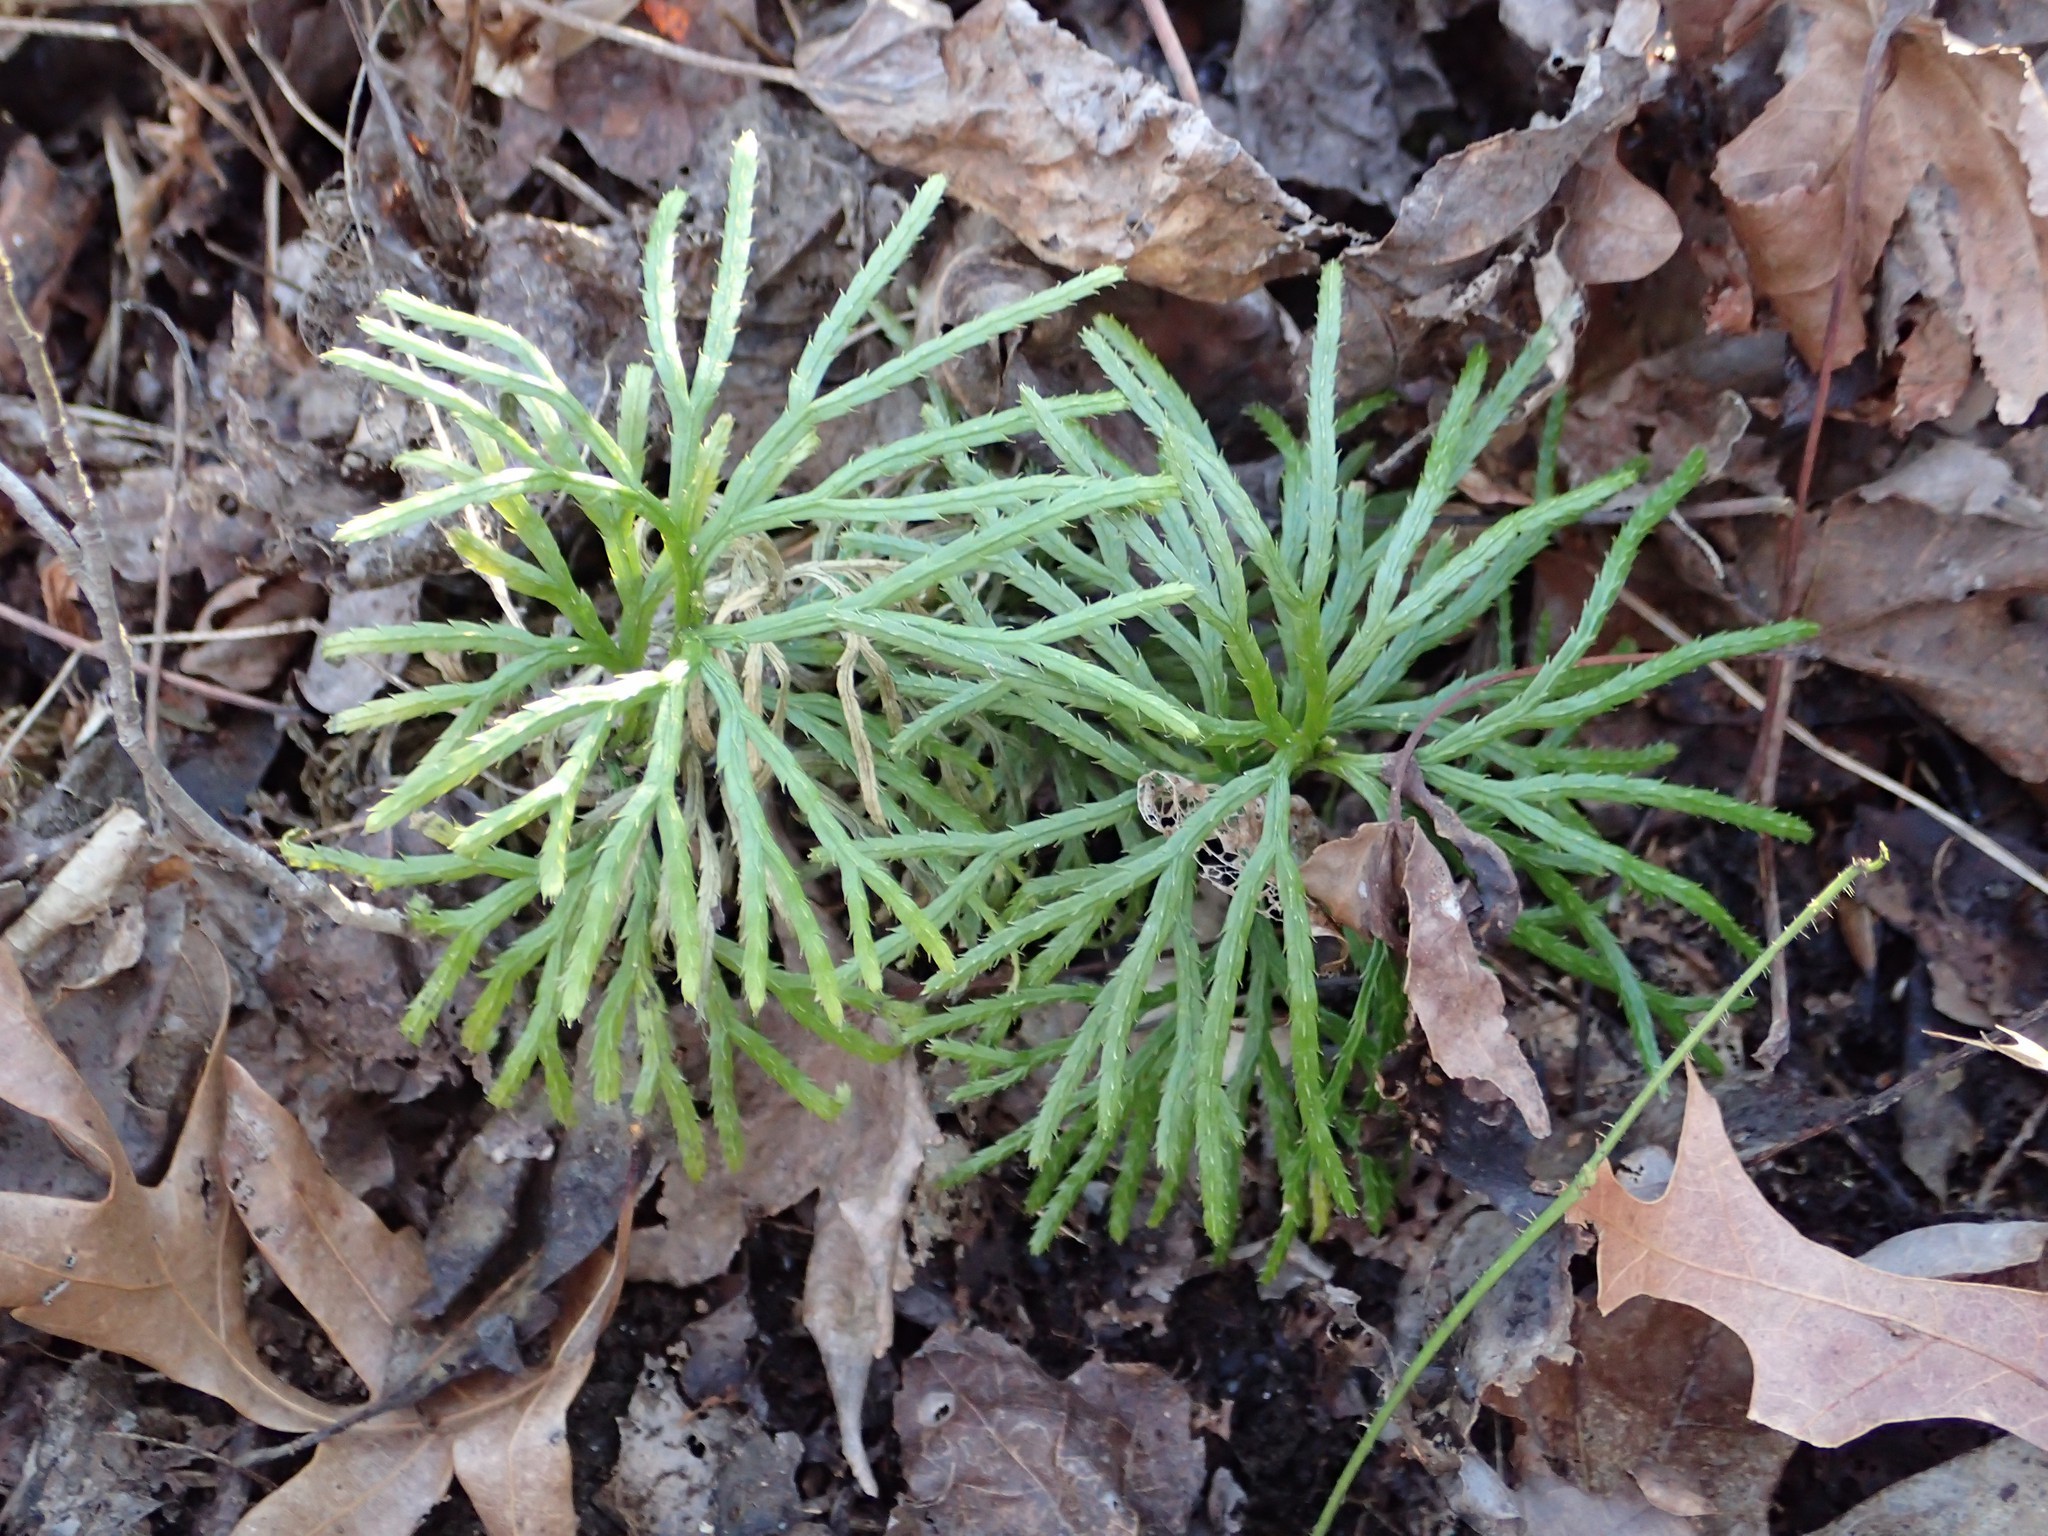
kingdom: Plantae
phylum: Tracheophyta
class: Lycopodiopsida
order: Lycopodiales
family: Lycopodiaceae
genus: Diphasiastrum
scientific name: Diphasiastrum digitatum
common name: Southern running-pine
